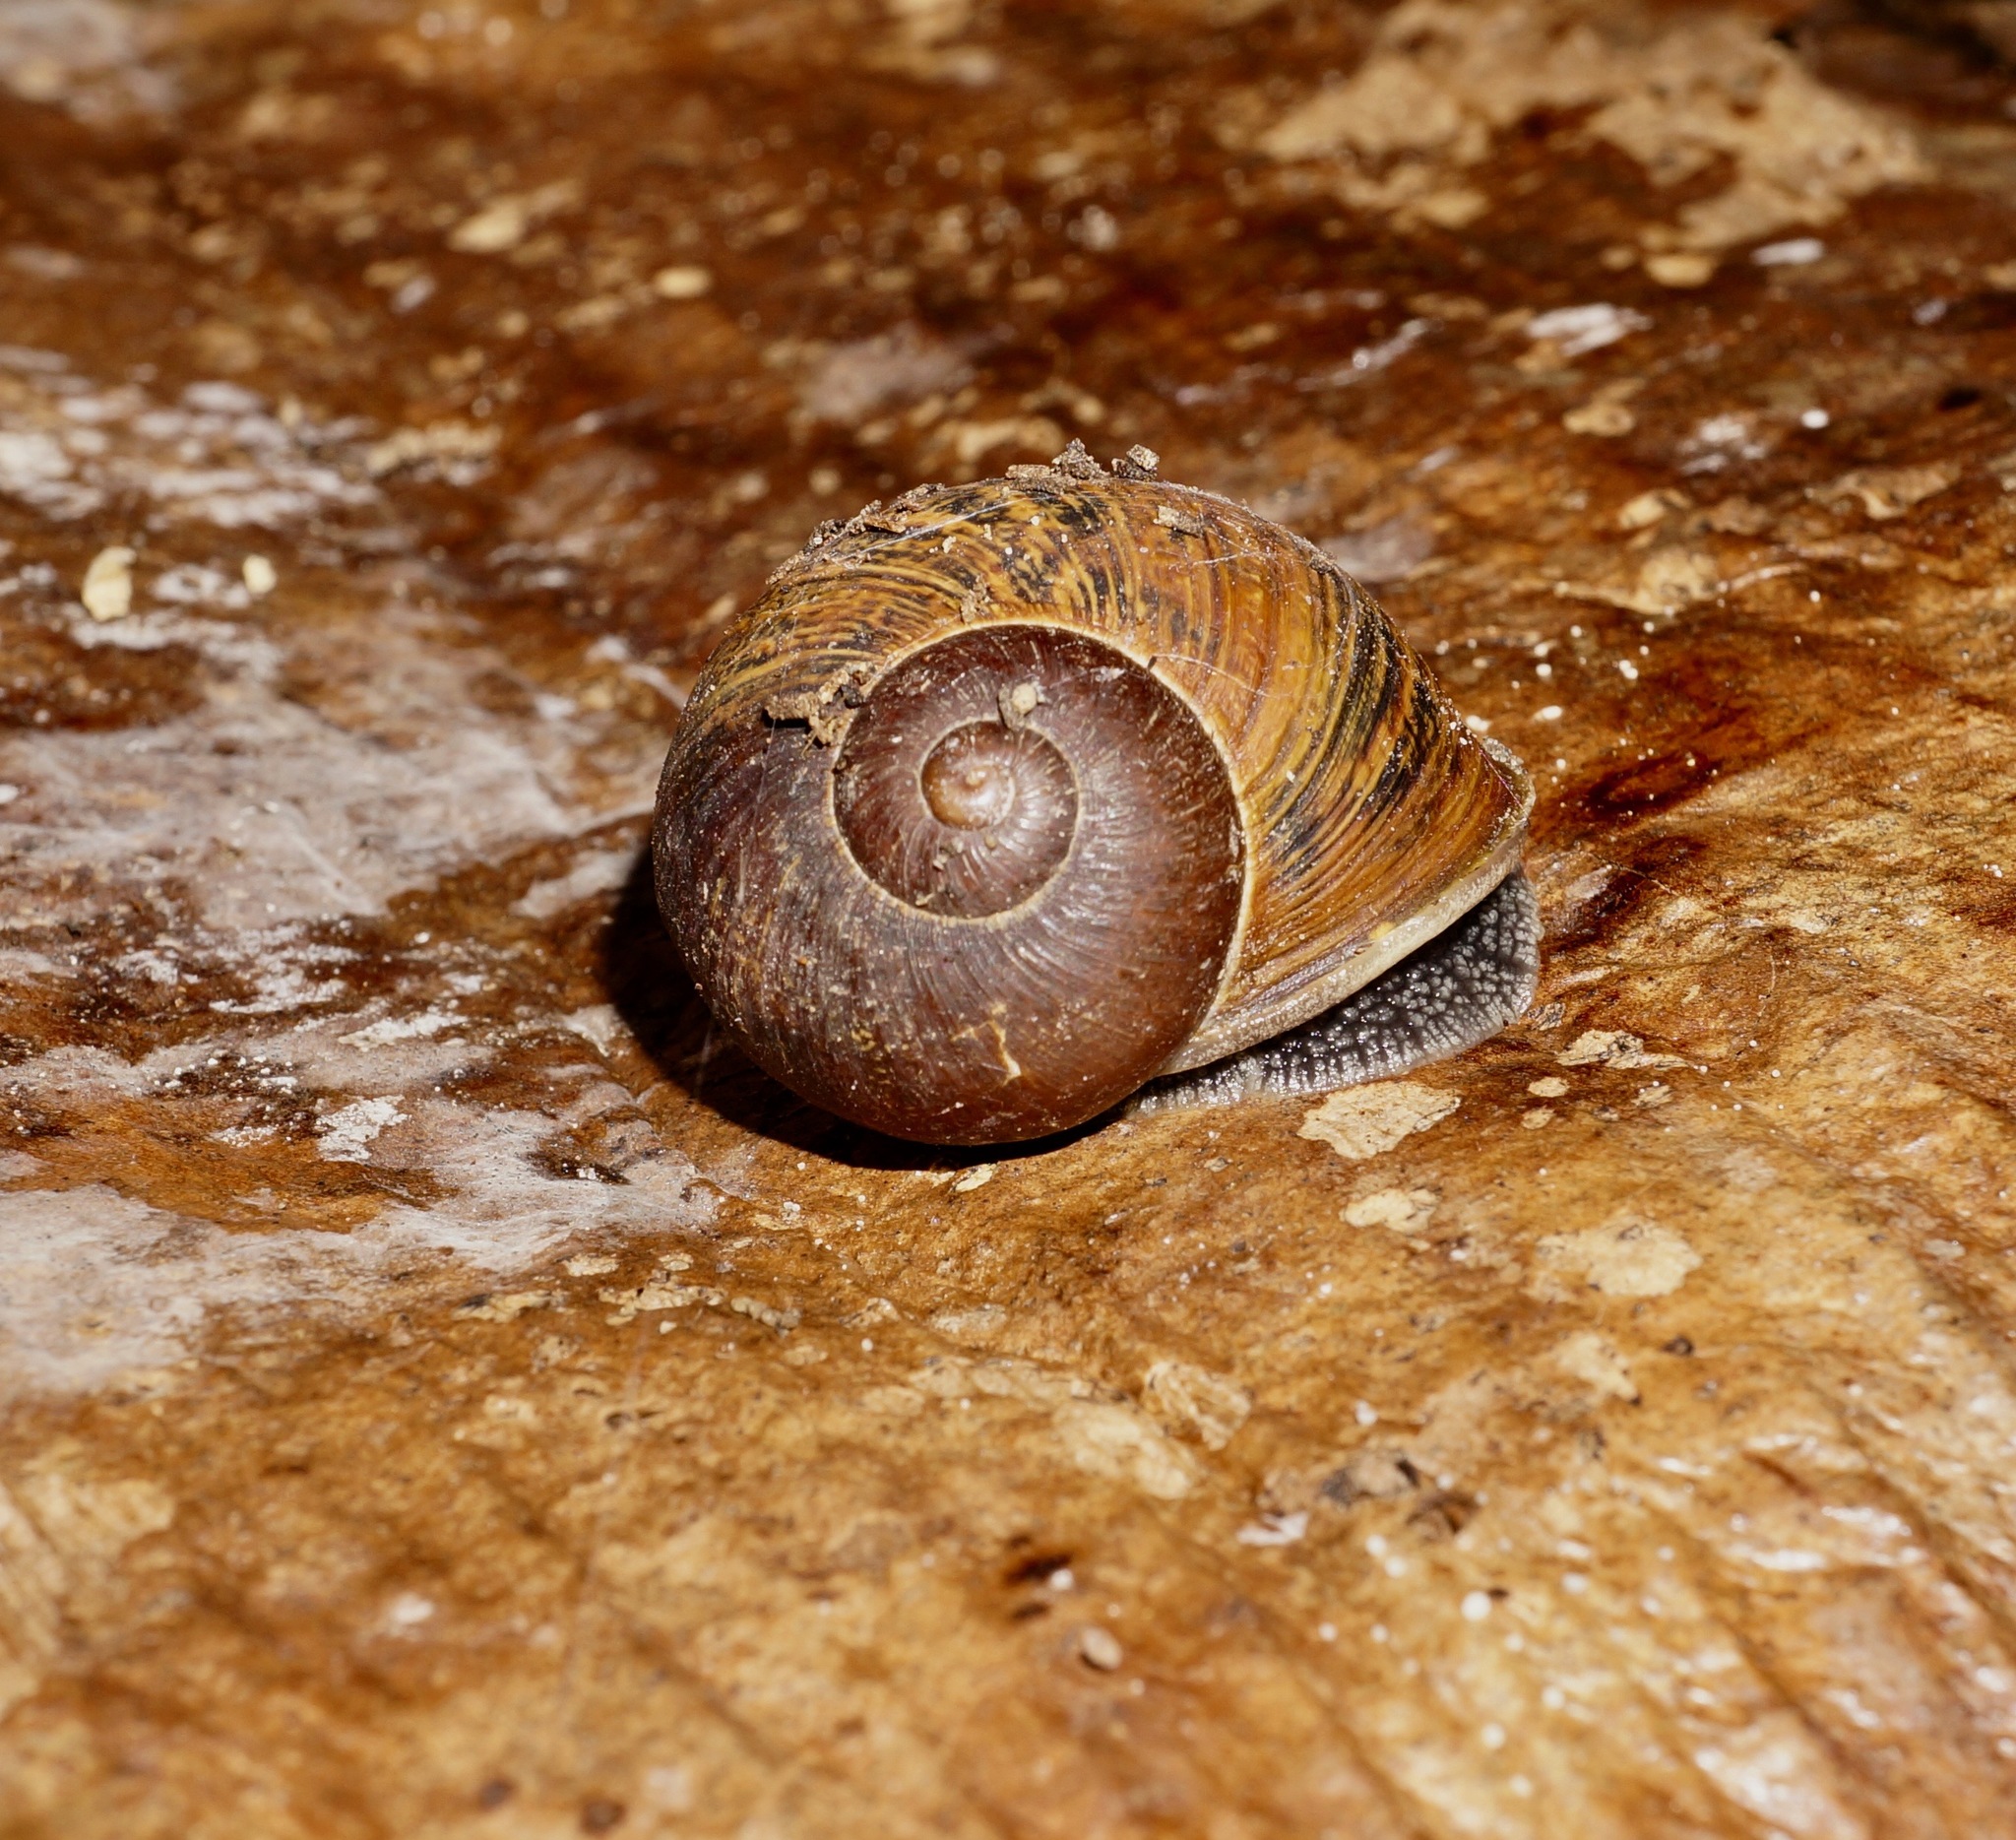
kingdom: Animalia
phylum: Mollusca
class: Gastropoda
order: Stylommatophora
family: Helicidae
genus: Cornu
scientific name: Cornu aspersum
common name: Brown garden snail
